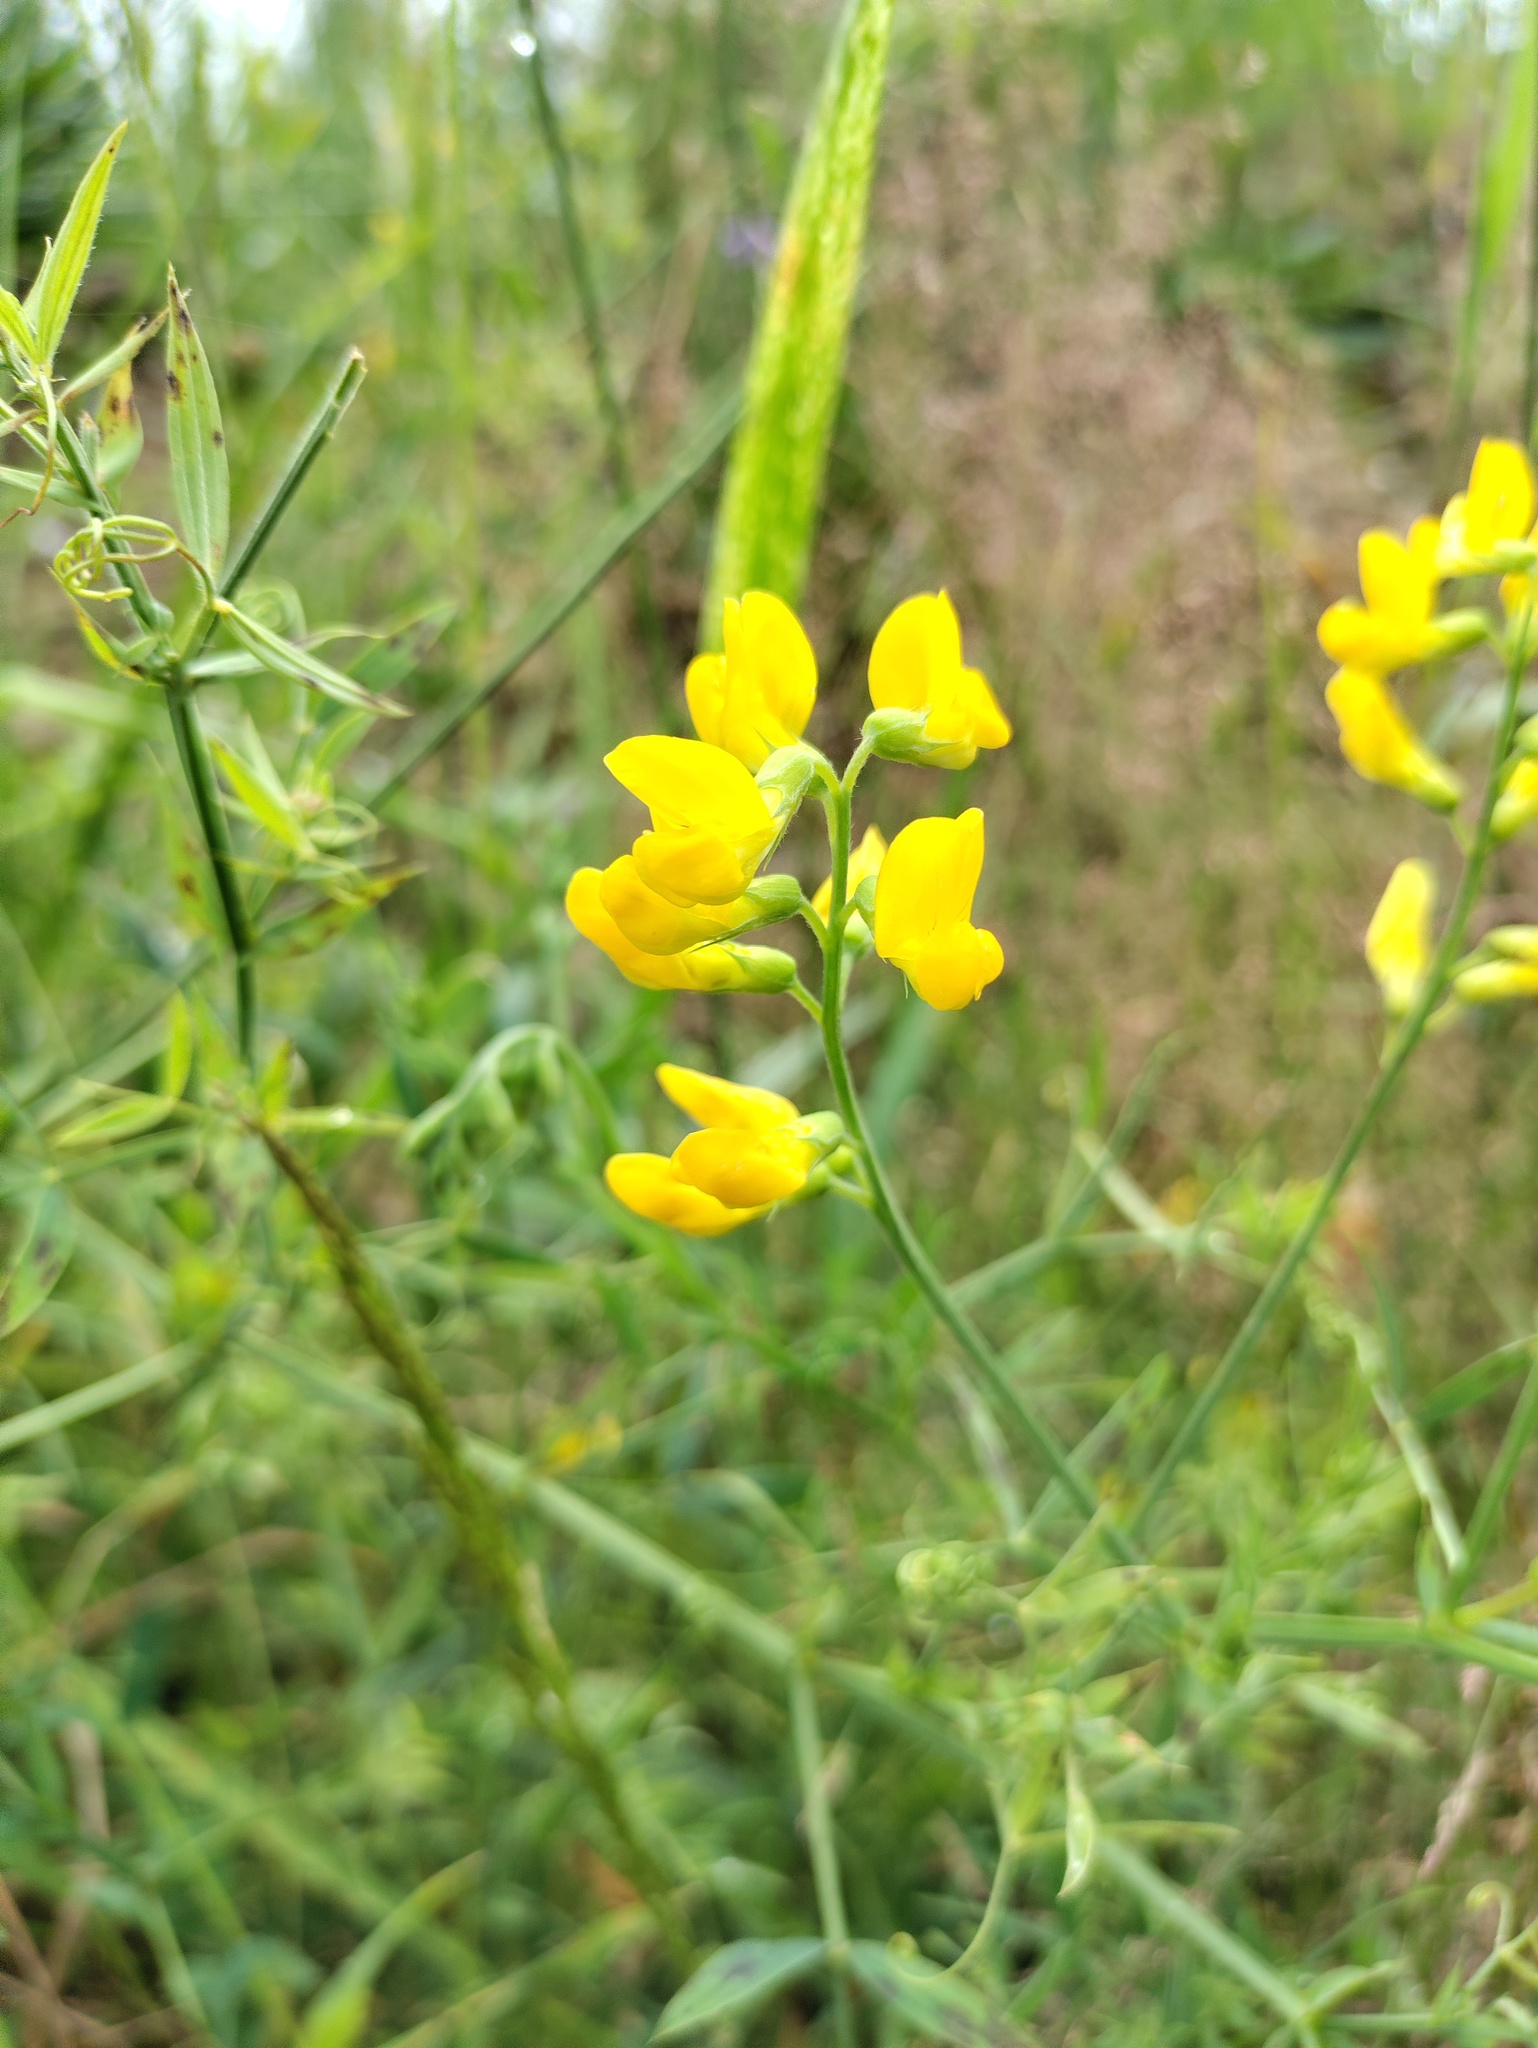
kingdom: Plantae
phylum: Tracheophyta
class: Magnoliopsida
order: Fabales
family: Fabaceae
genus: Lathyrus
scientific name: Lathyrus pratensis
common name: Meadow vetchling
